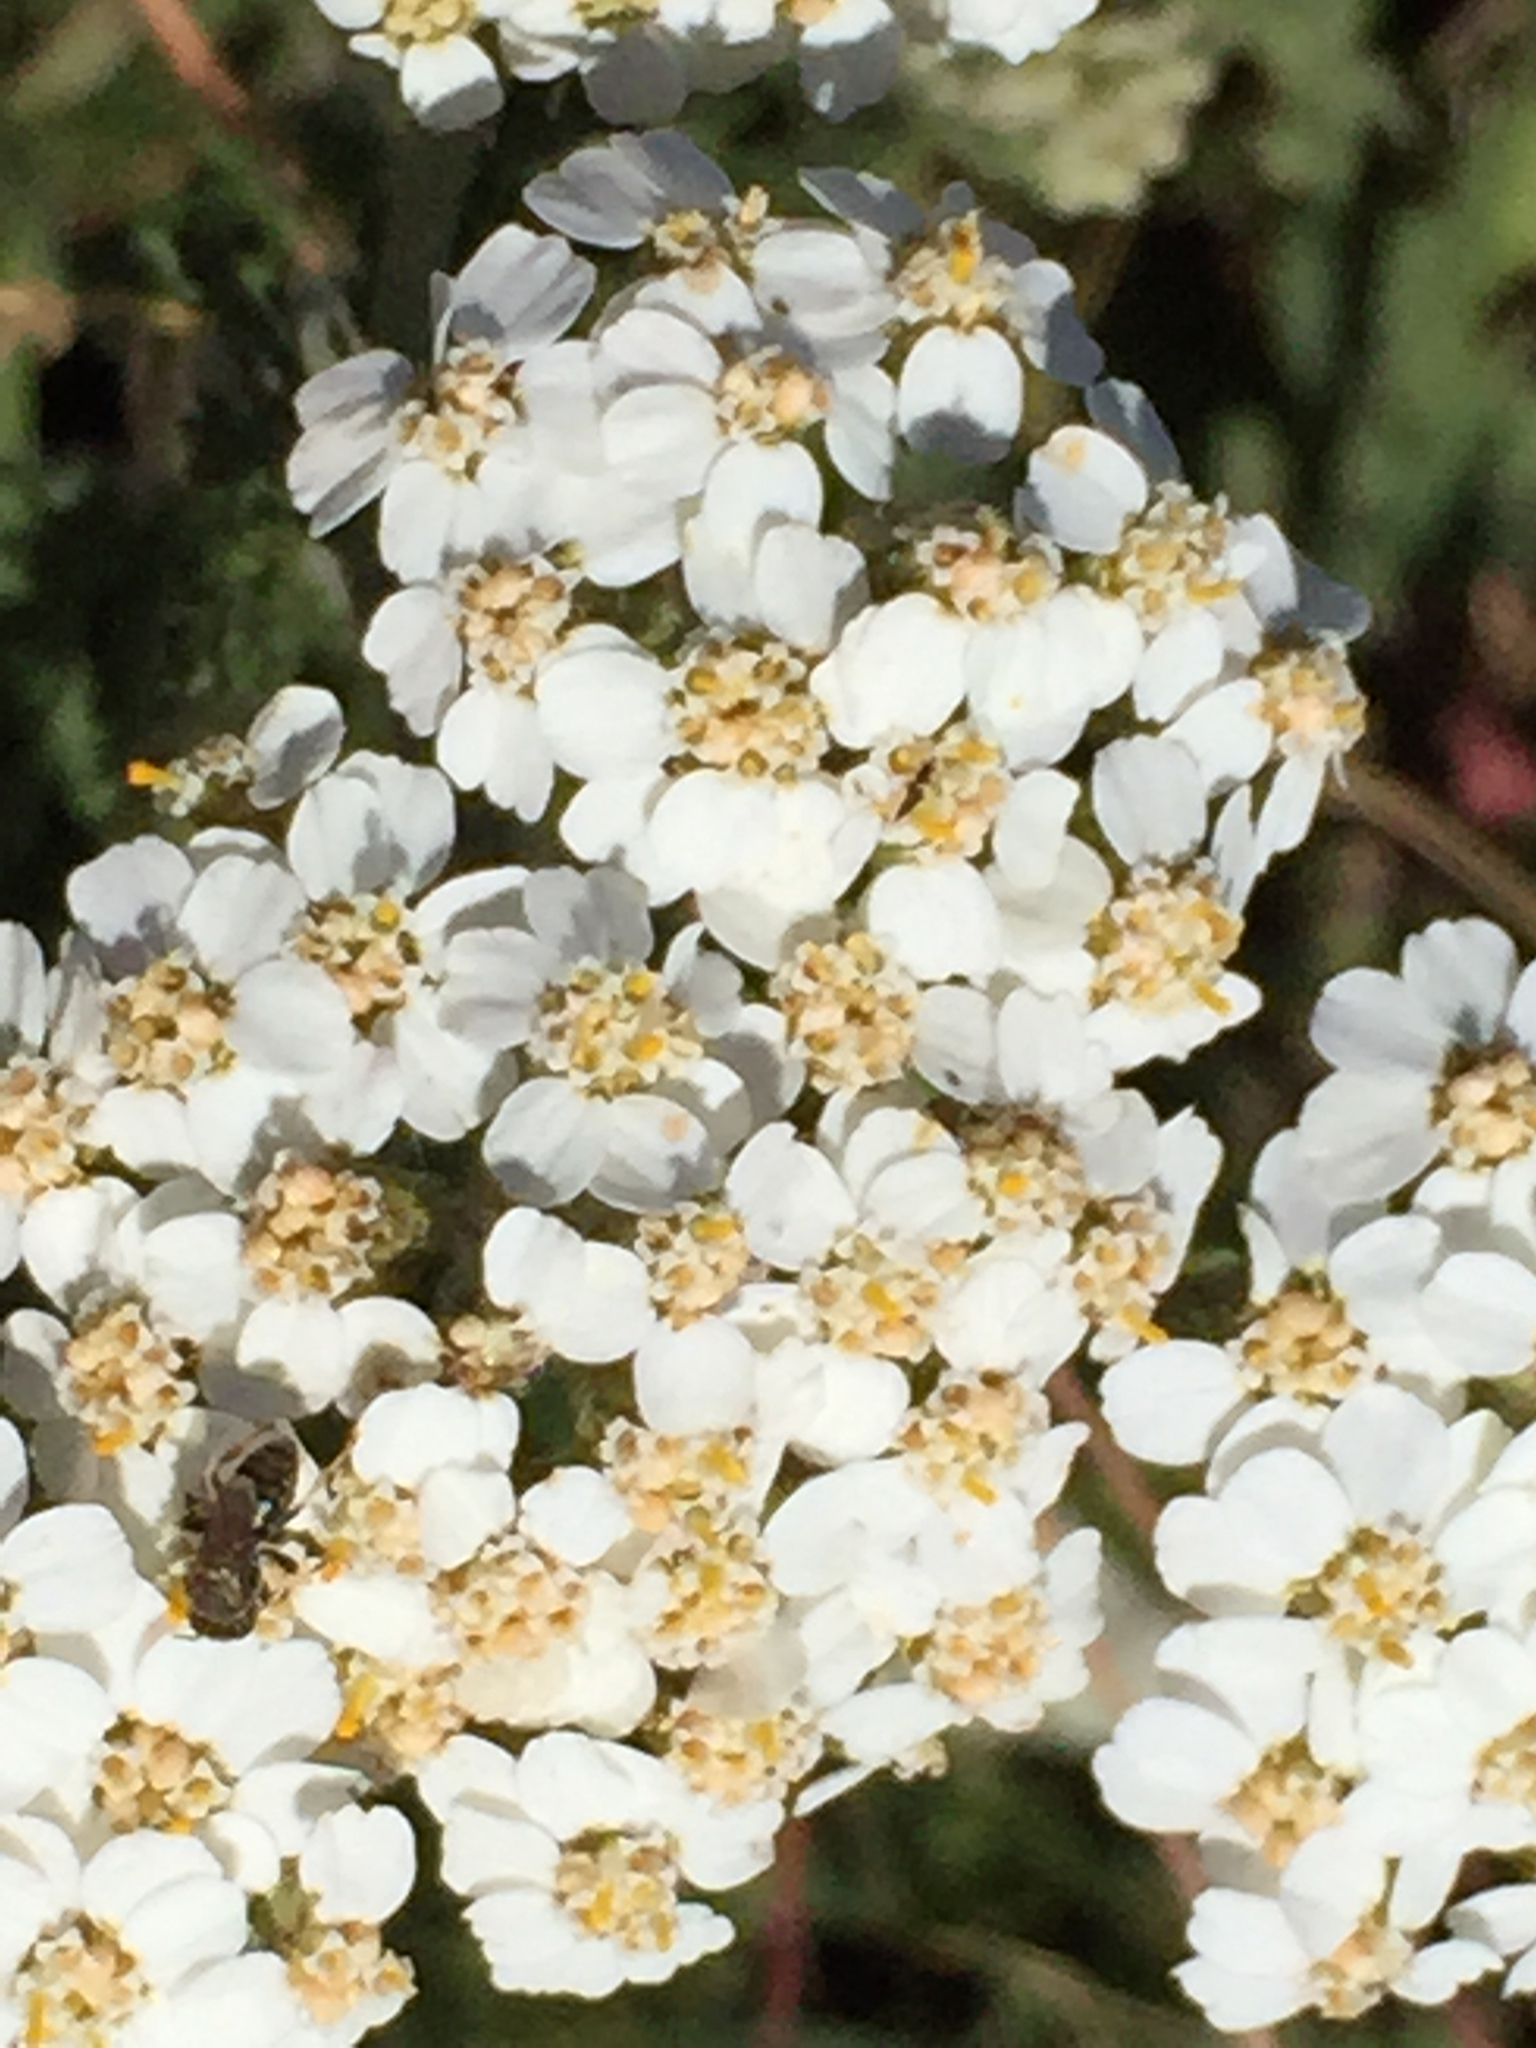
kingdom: Plantae
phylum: Tracheophyta
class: Magnoliopsida
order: Asterales
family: Asteraceae
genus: Achillea
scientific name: Achillea millefolium
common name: Yarrow
